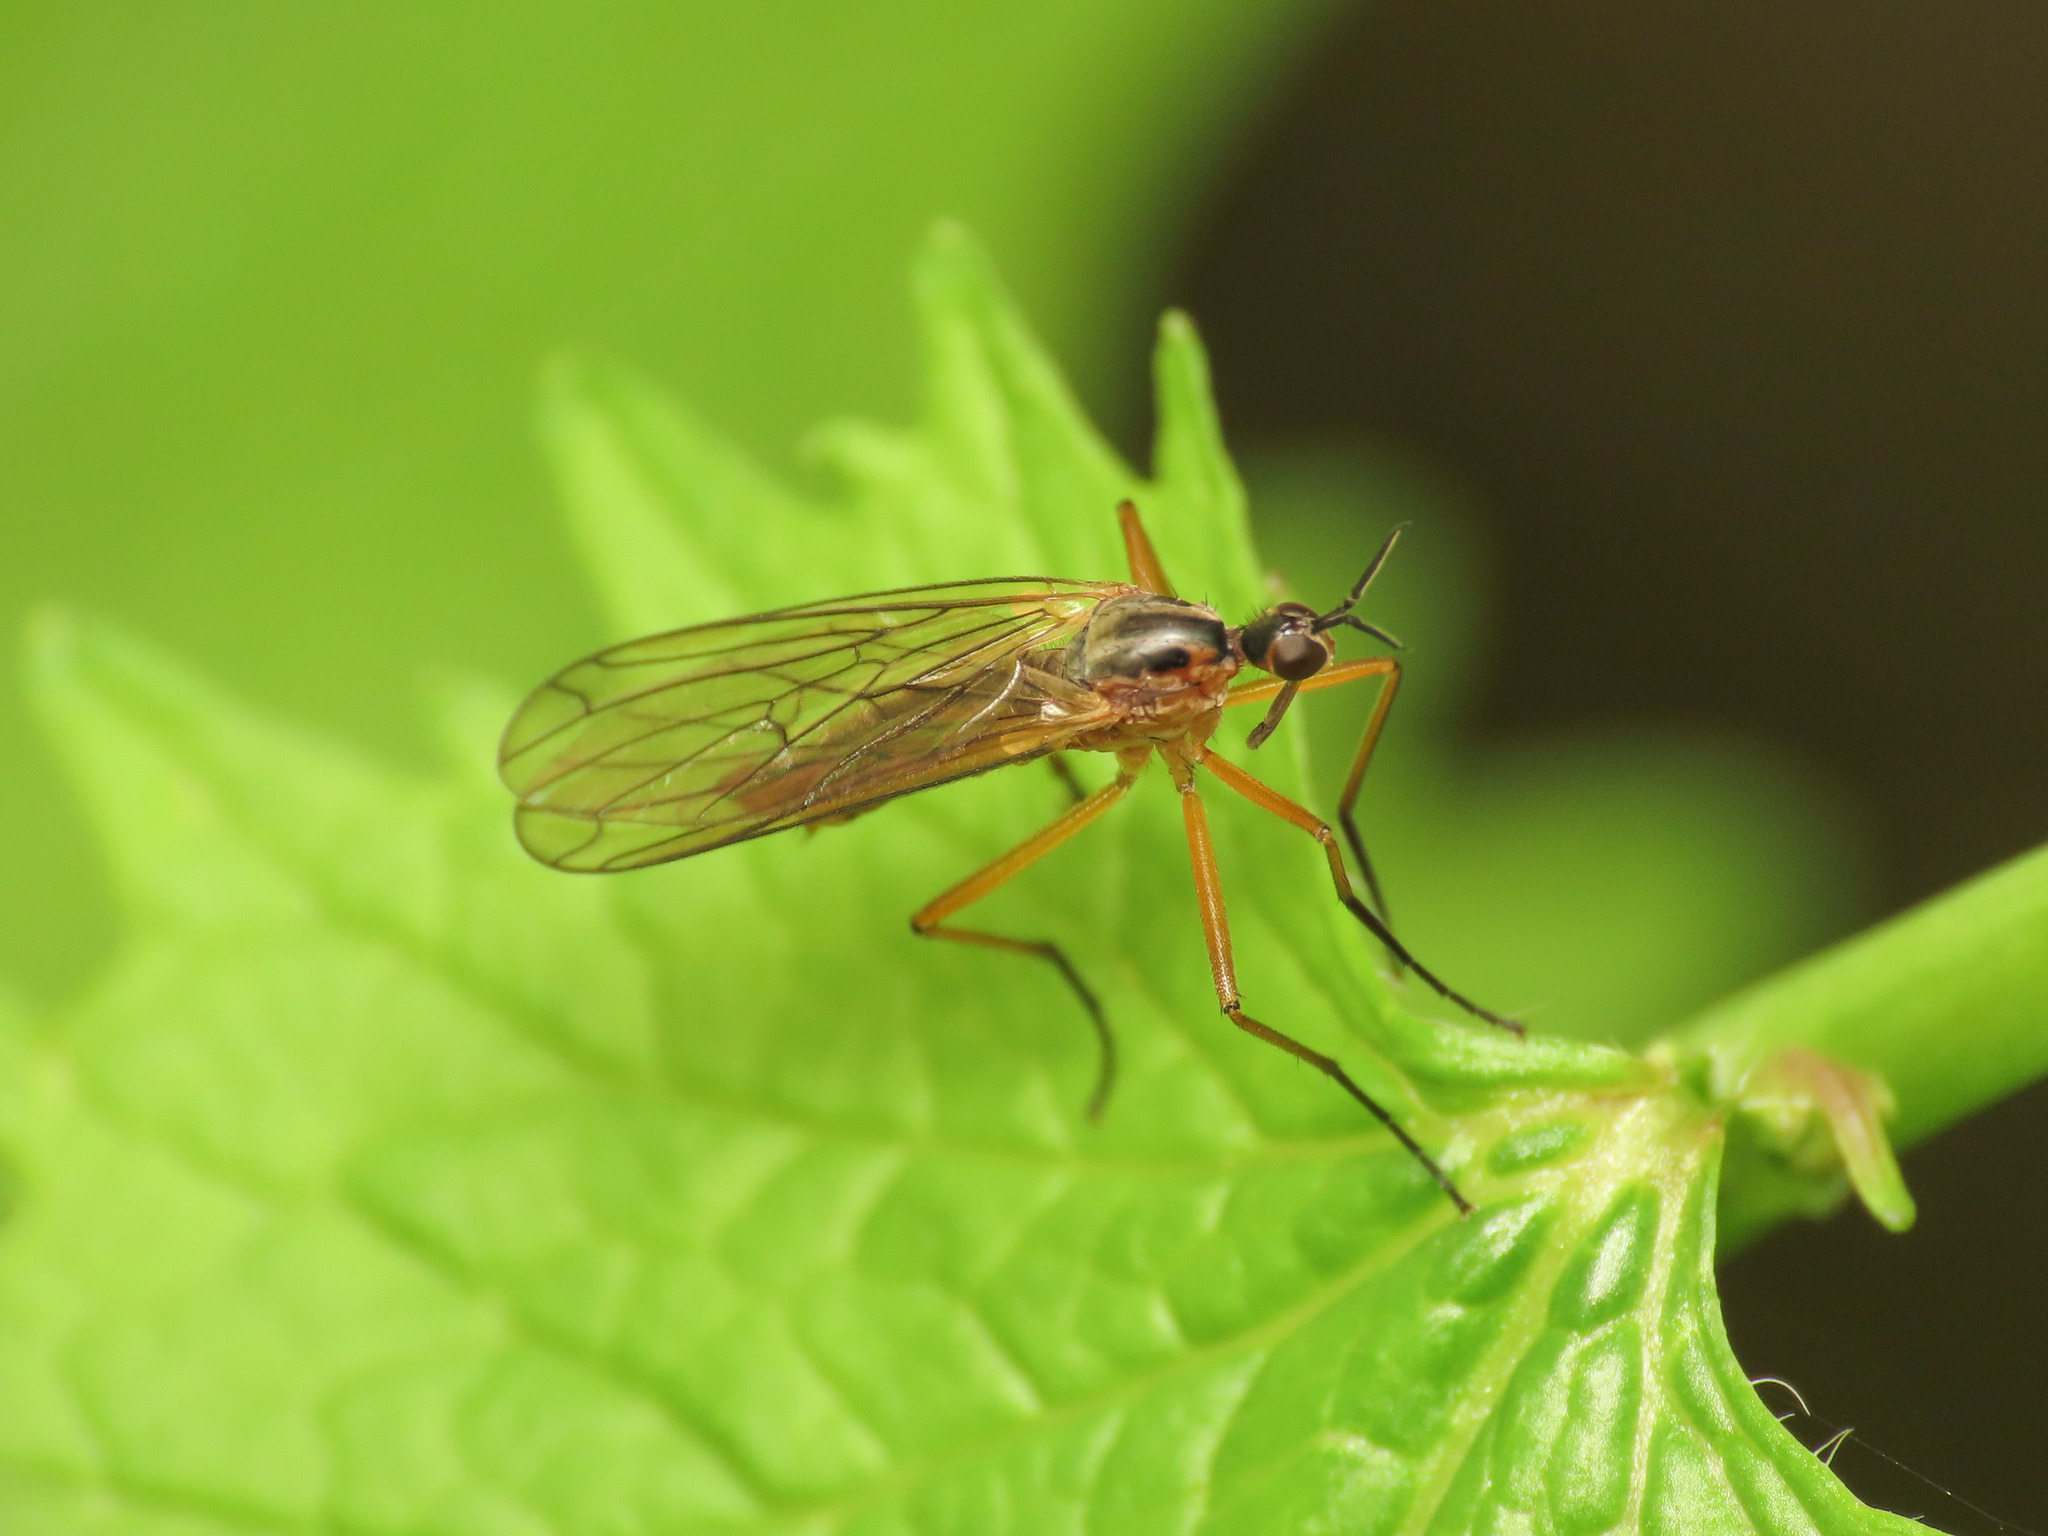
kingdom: Animalia
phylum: Arthropoda
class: Insecta
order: Diptera
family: Empididae
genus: Empis
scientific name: Empis trigramma
